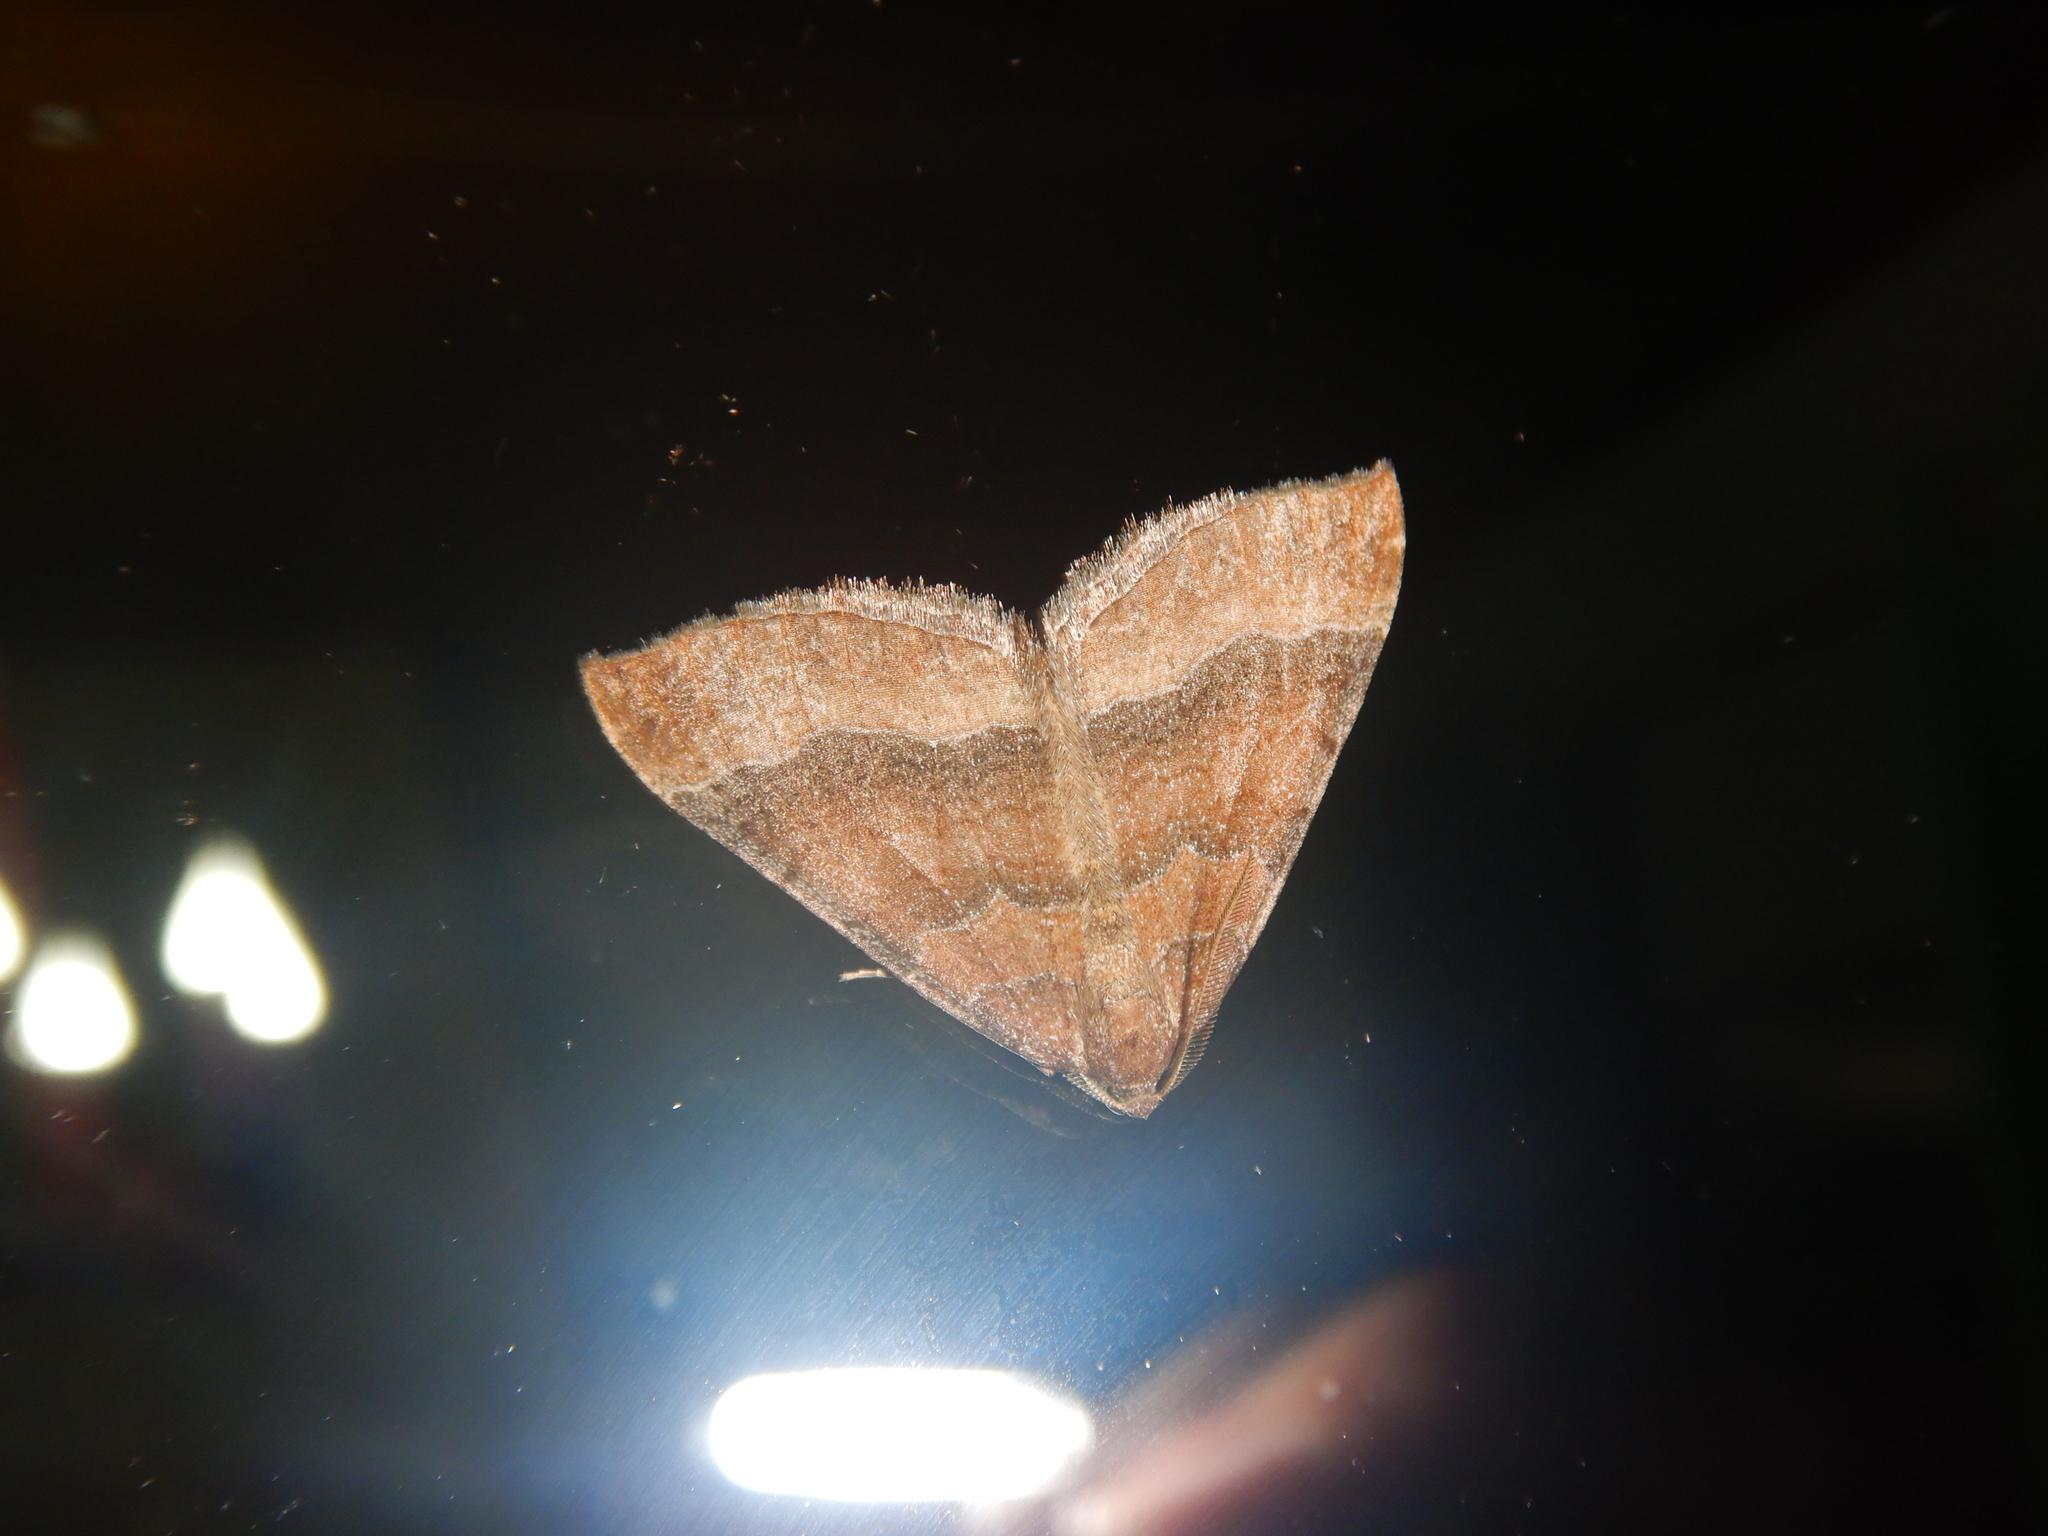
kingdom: Animalia
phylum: Arthropoda
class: Insecta
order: Lepidoptera
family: Geometridae
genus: Larentia
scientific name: Larentia clavaria
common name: Mallow
